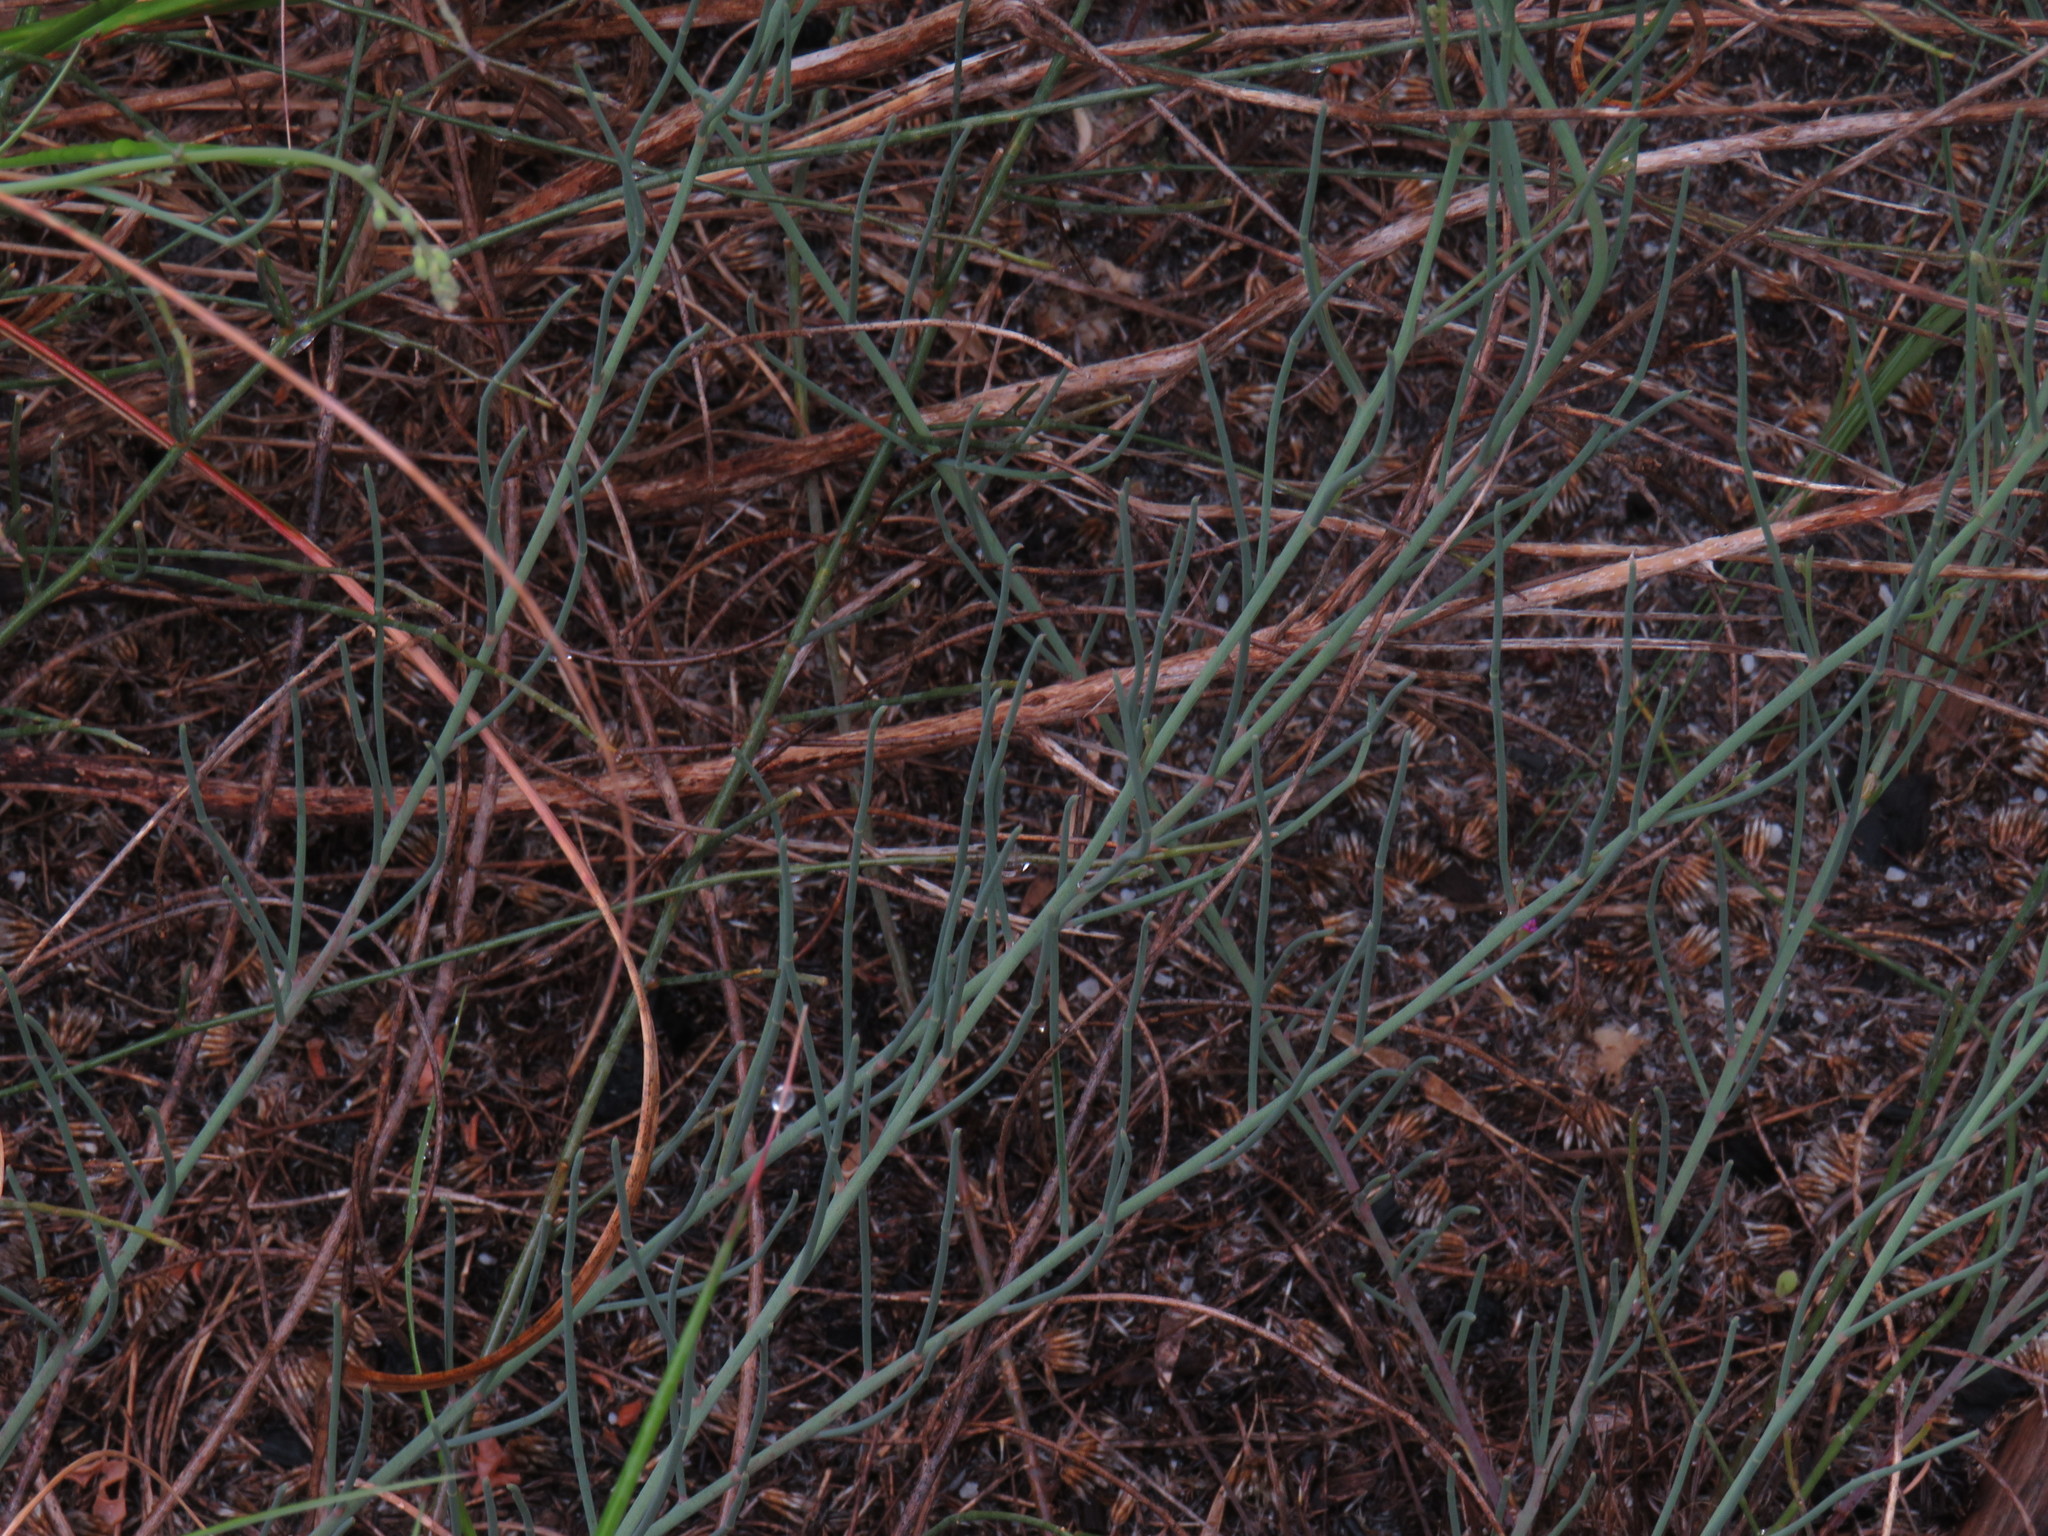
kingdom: Plantae
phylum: Tracheophyta
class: Magnoliopsida
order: Fabales
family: Fabaceae
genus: Lebeckia
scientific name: Lebeckia contaminata
